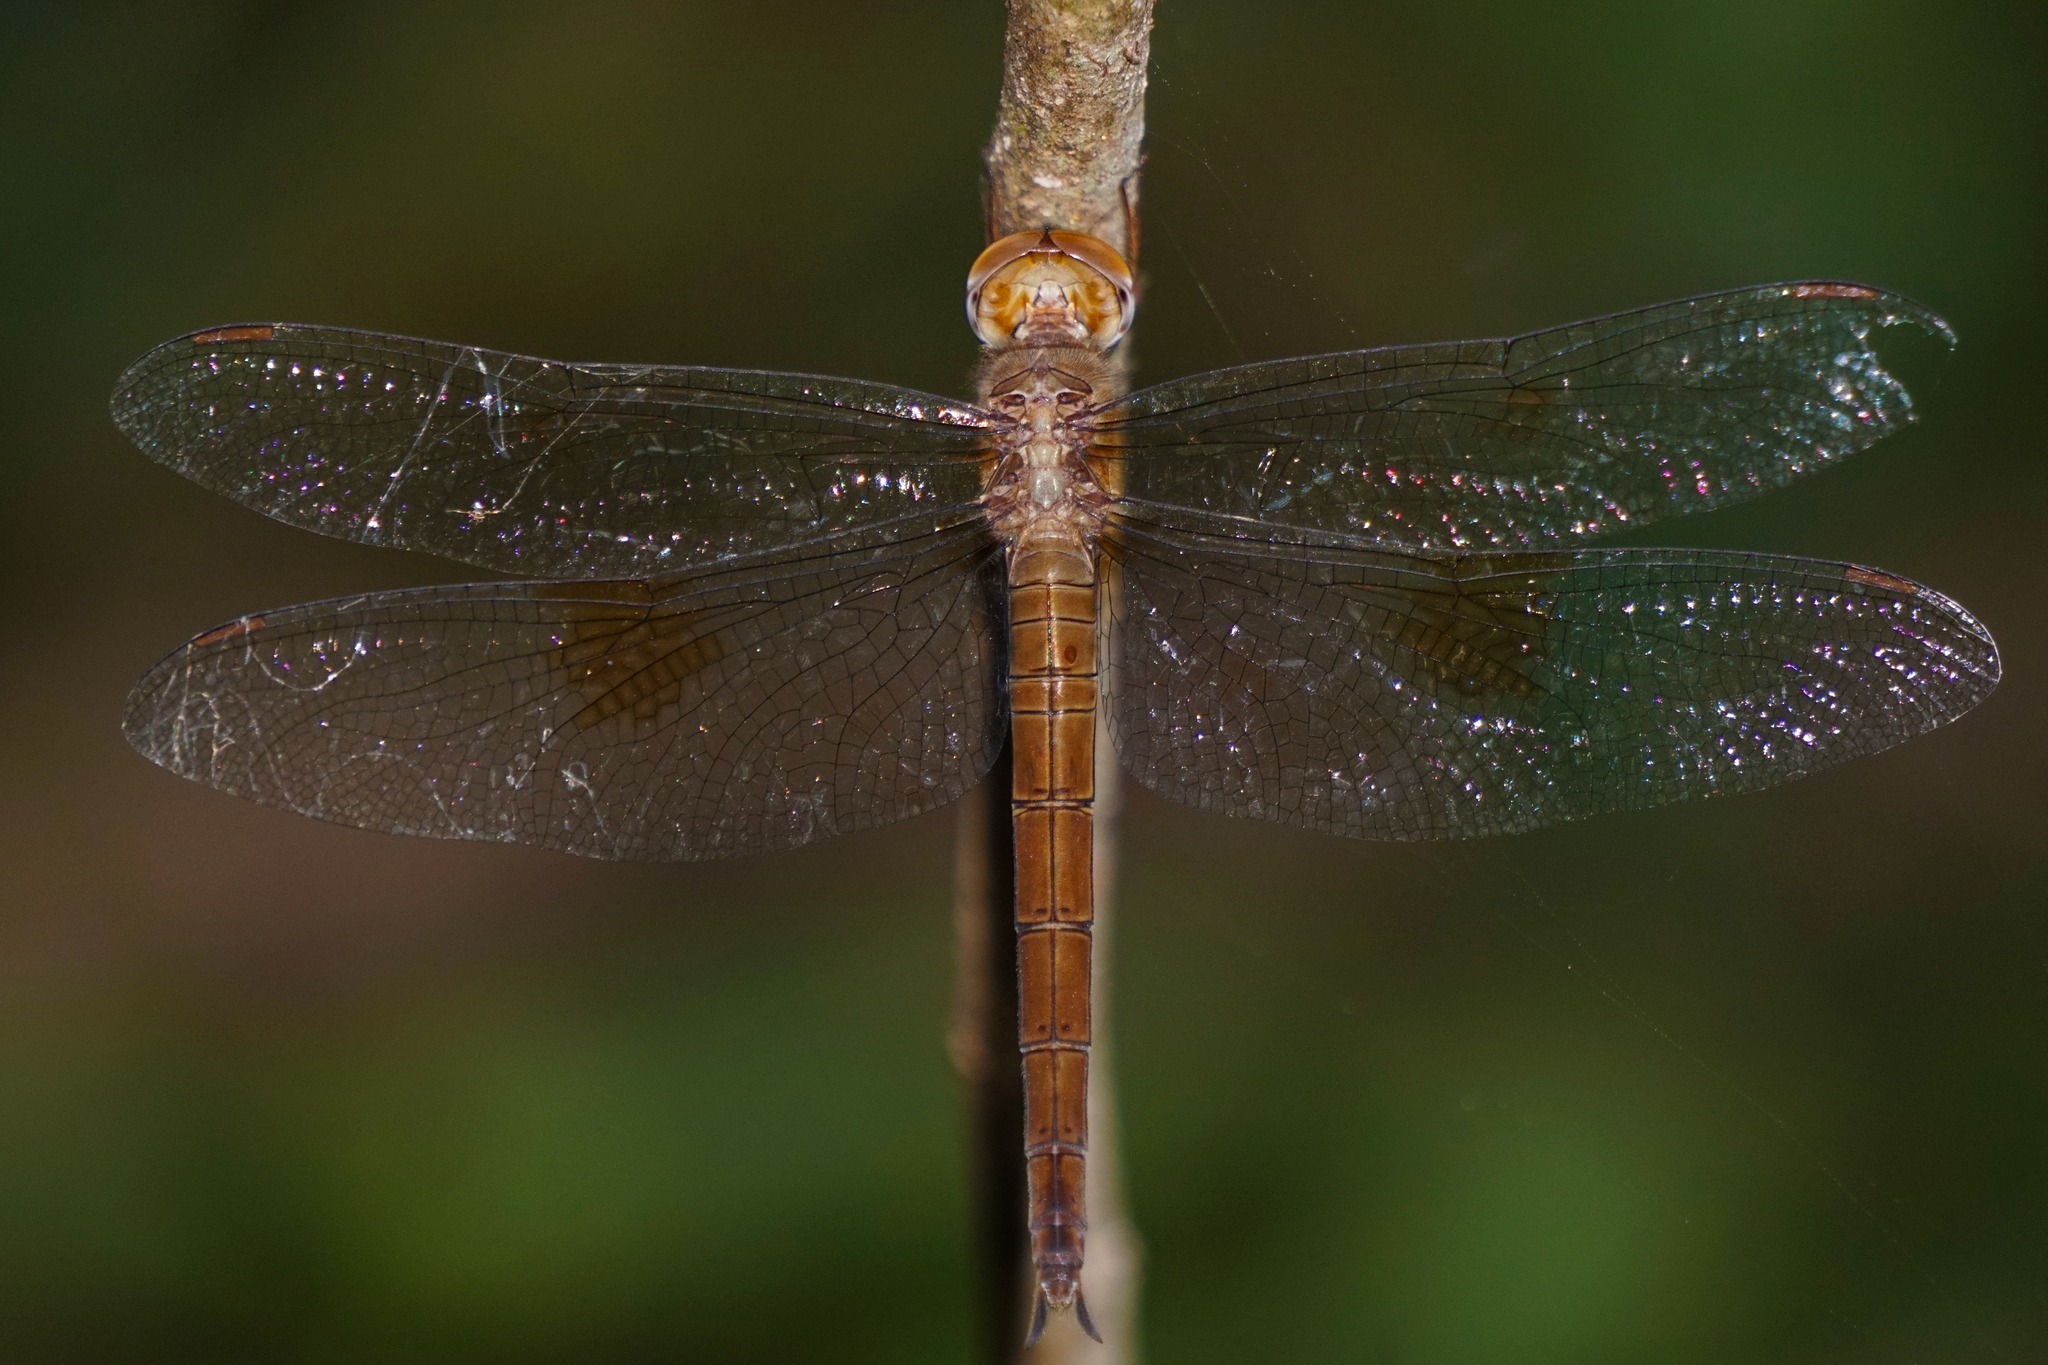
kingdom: Animalia
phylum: Arthropoda
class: Insecta
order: Odonata
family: Libellulidae
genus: Tholymis
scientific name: Tholymis citrina
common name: Evening skimmer
